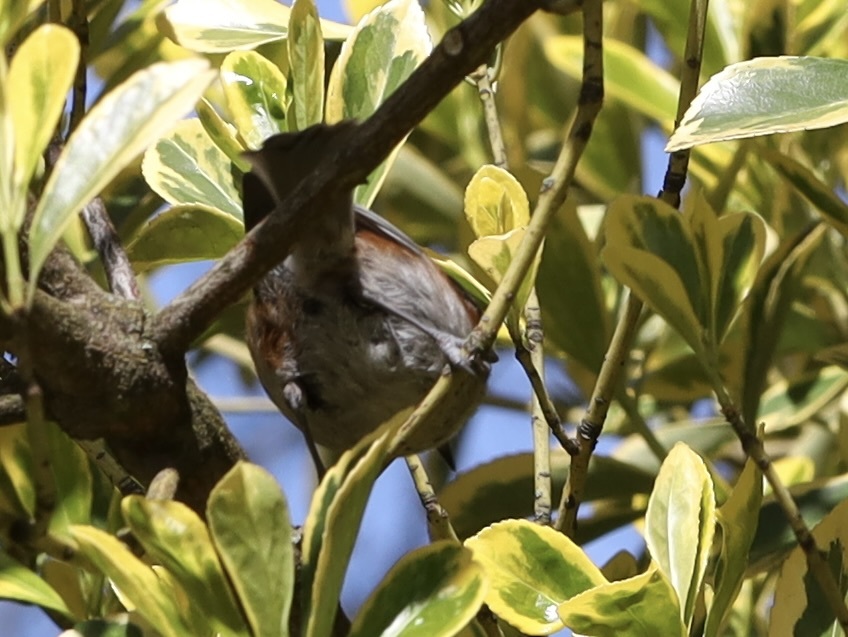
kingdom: Animalia
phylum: Chordata
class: Aves
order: Passeriformes
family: Paridae
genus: Poecile
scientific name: Poecile rufescens
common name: Chestnut-backed chickadee
